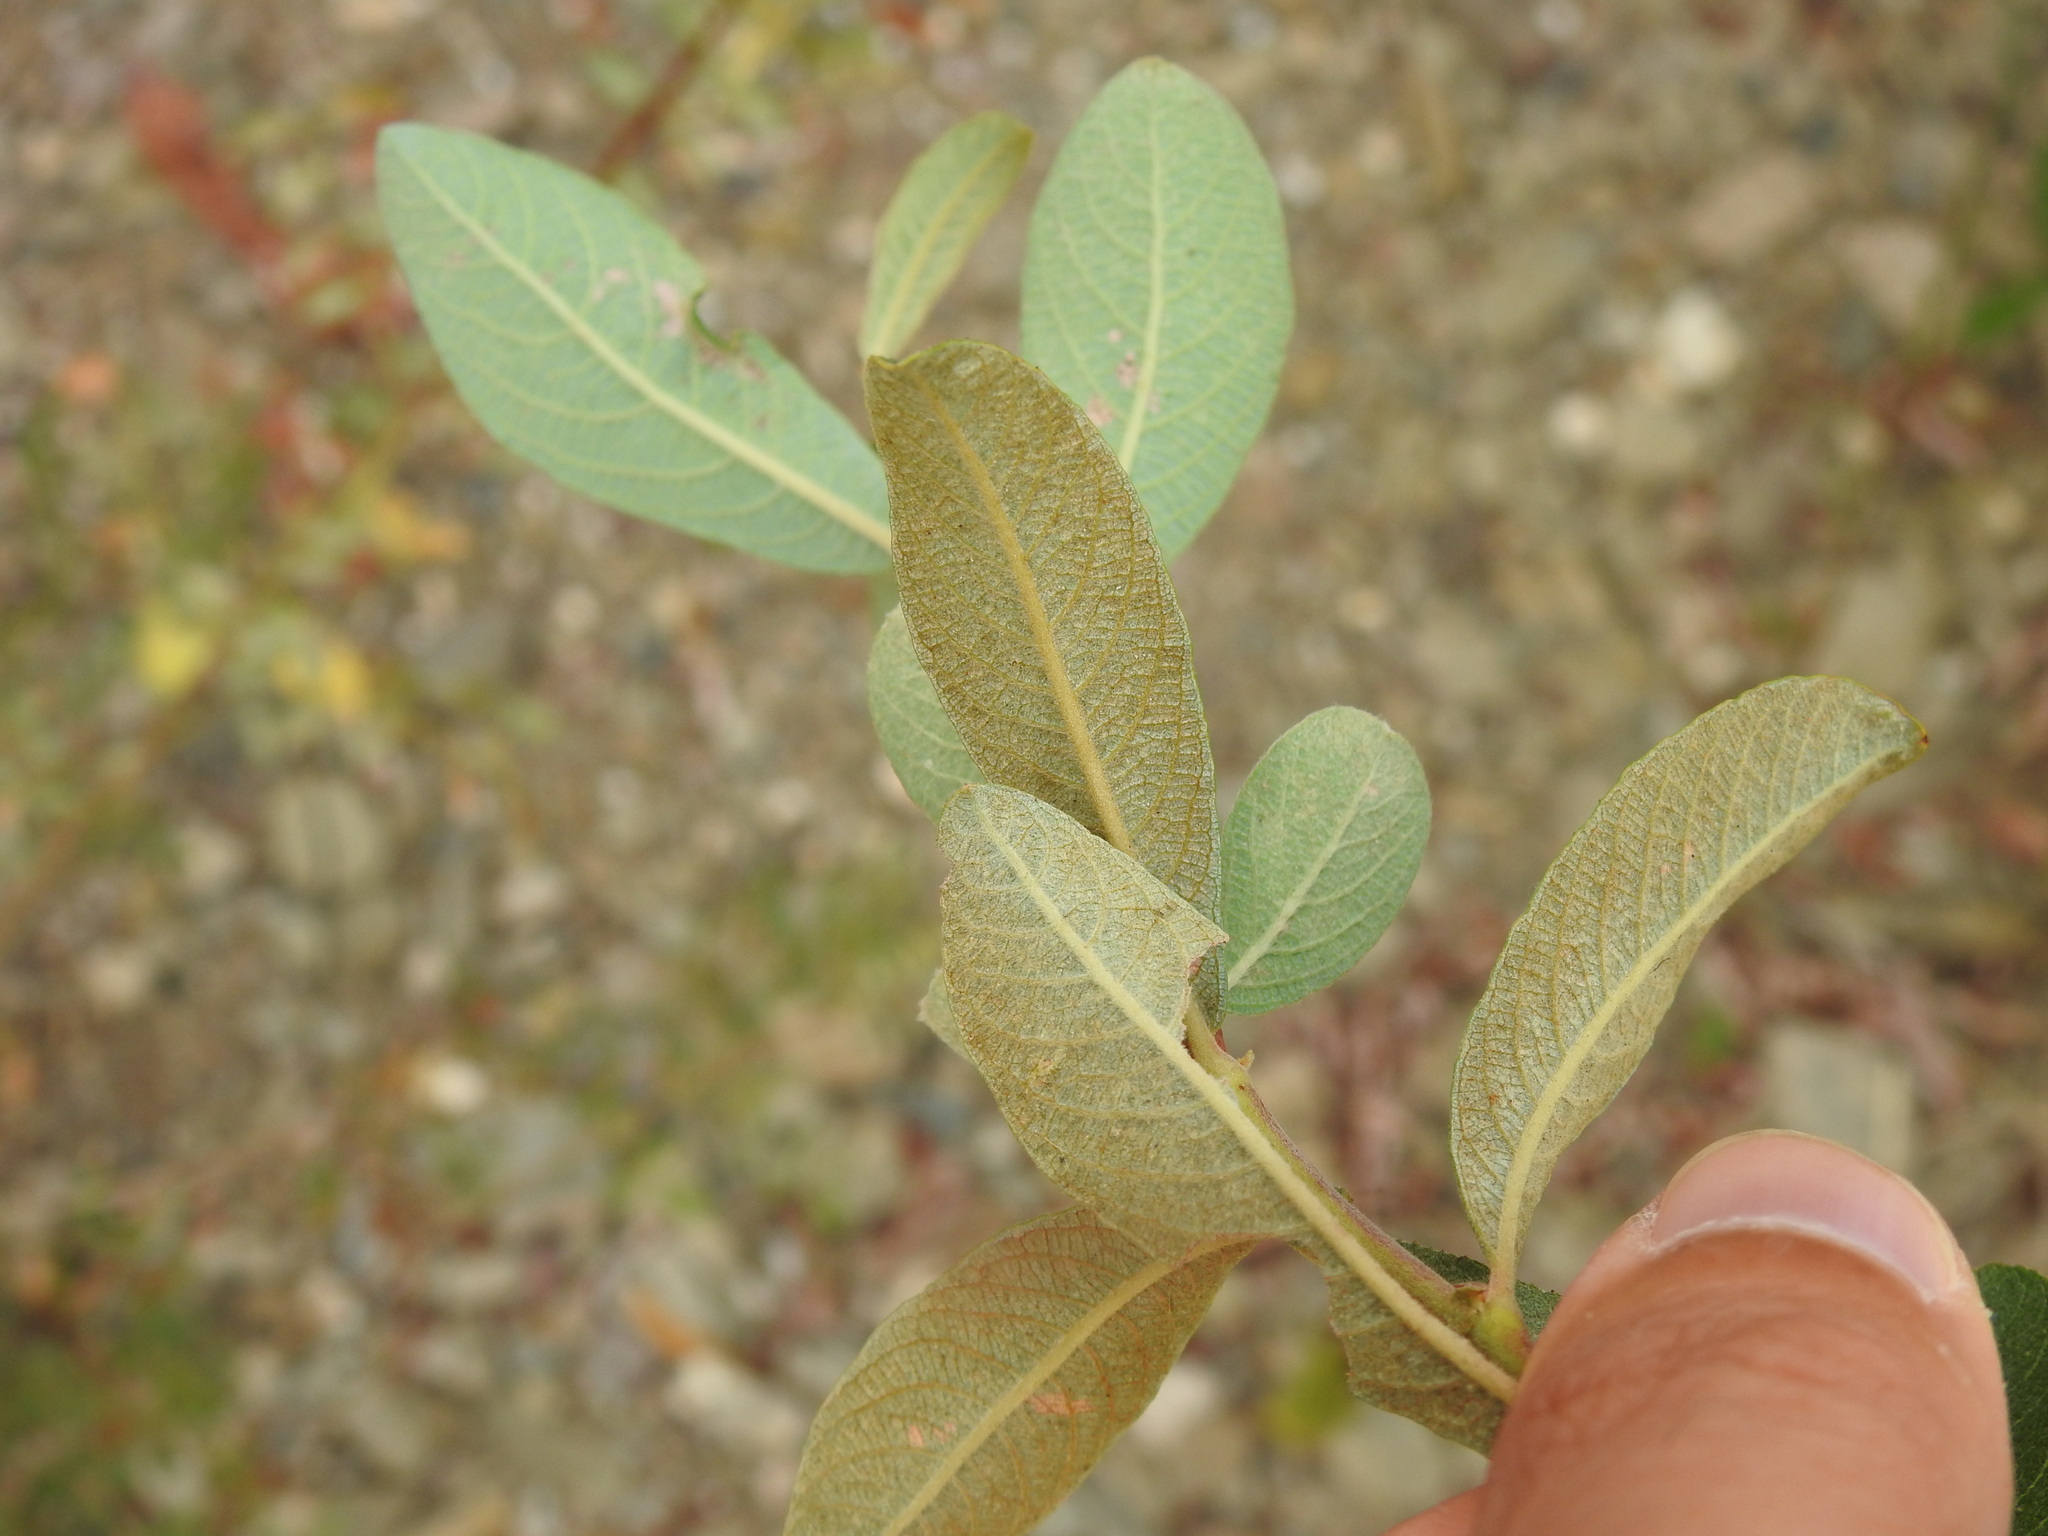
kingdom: Plantae
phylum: Tracheophyta
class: Magnoliopsida
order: Malpighiales
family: Salicaceae
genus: Salix
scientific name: Salix atrocinerea
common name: Rusty willow
